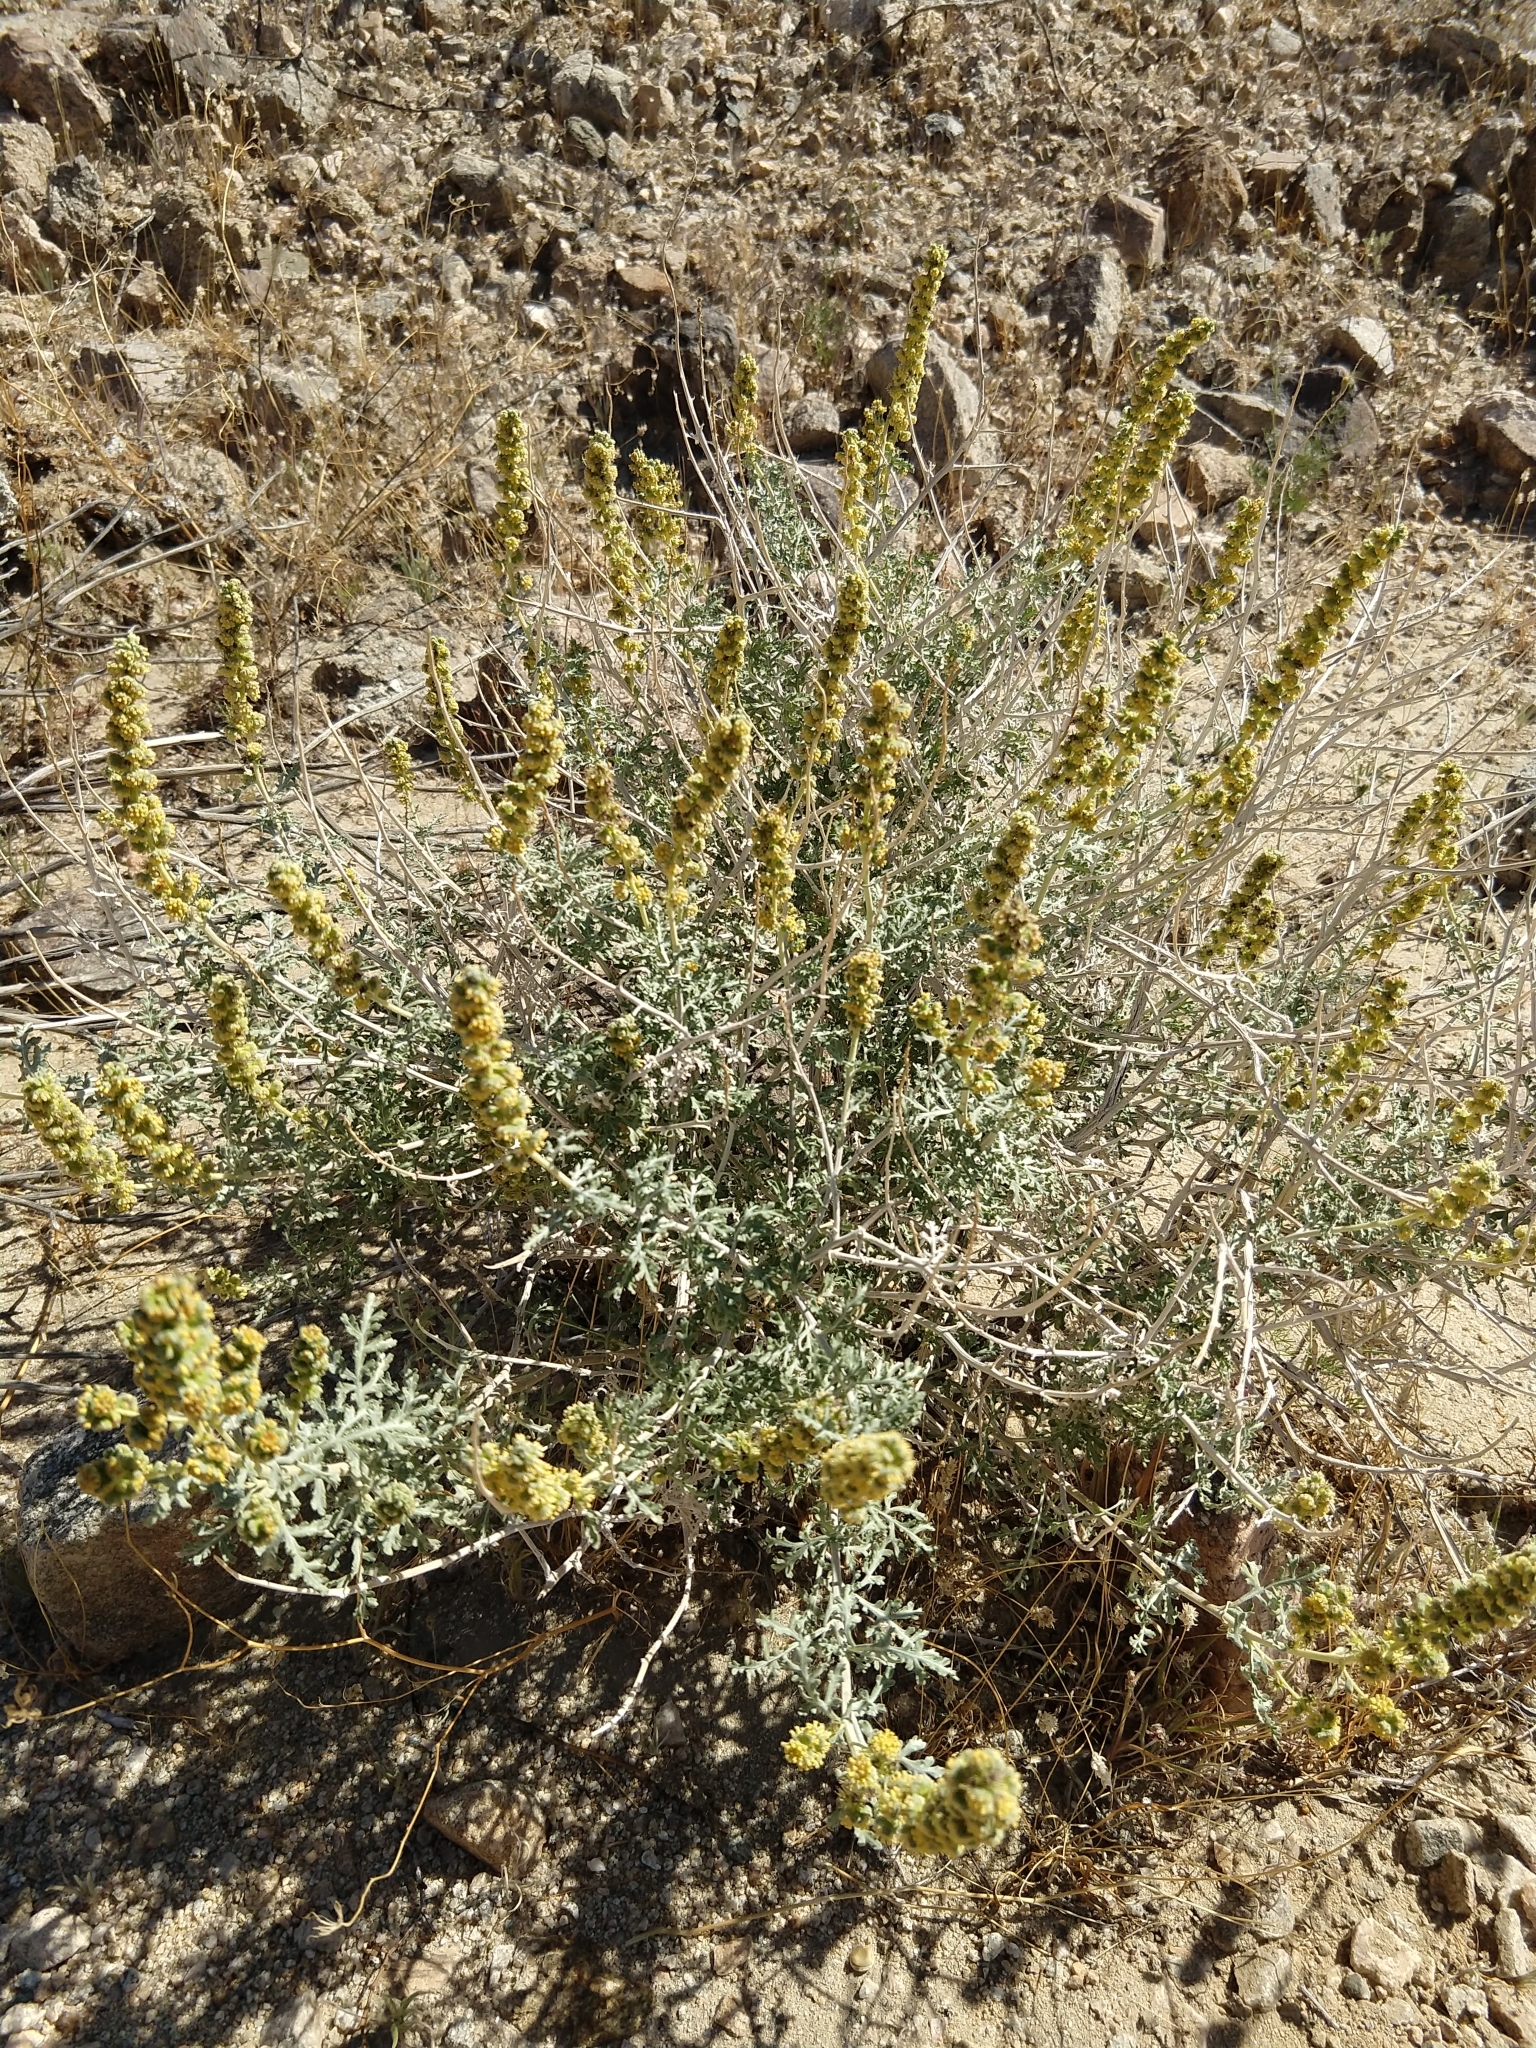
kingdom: Plantae
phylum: Tracheophyta
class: Magnoliopsida
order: Asterales
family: Asteraceae
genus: Ambrosia
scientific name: Ambrosia dumosa
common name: Bur-sage
